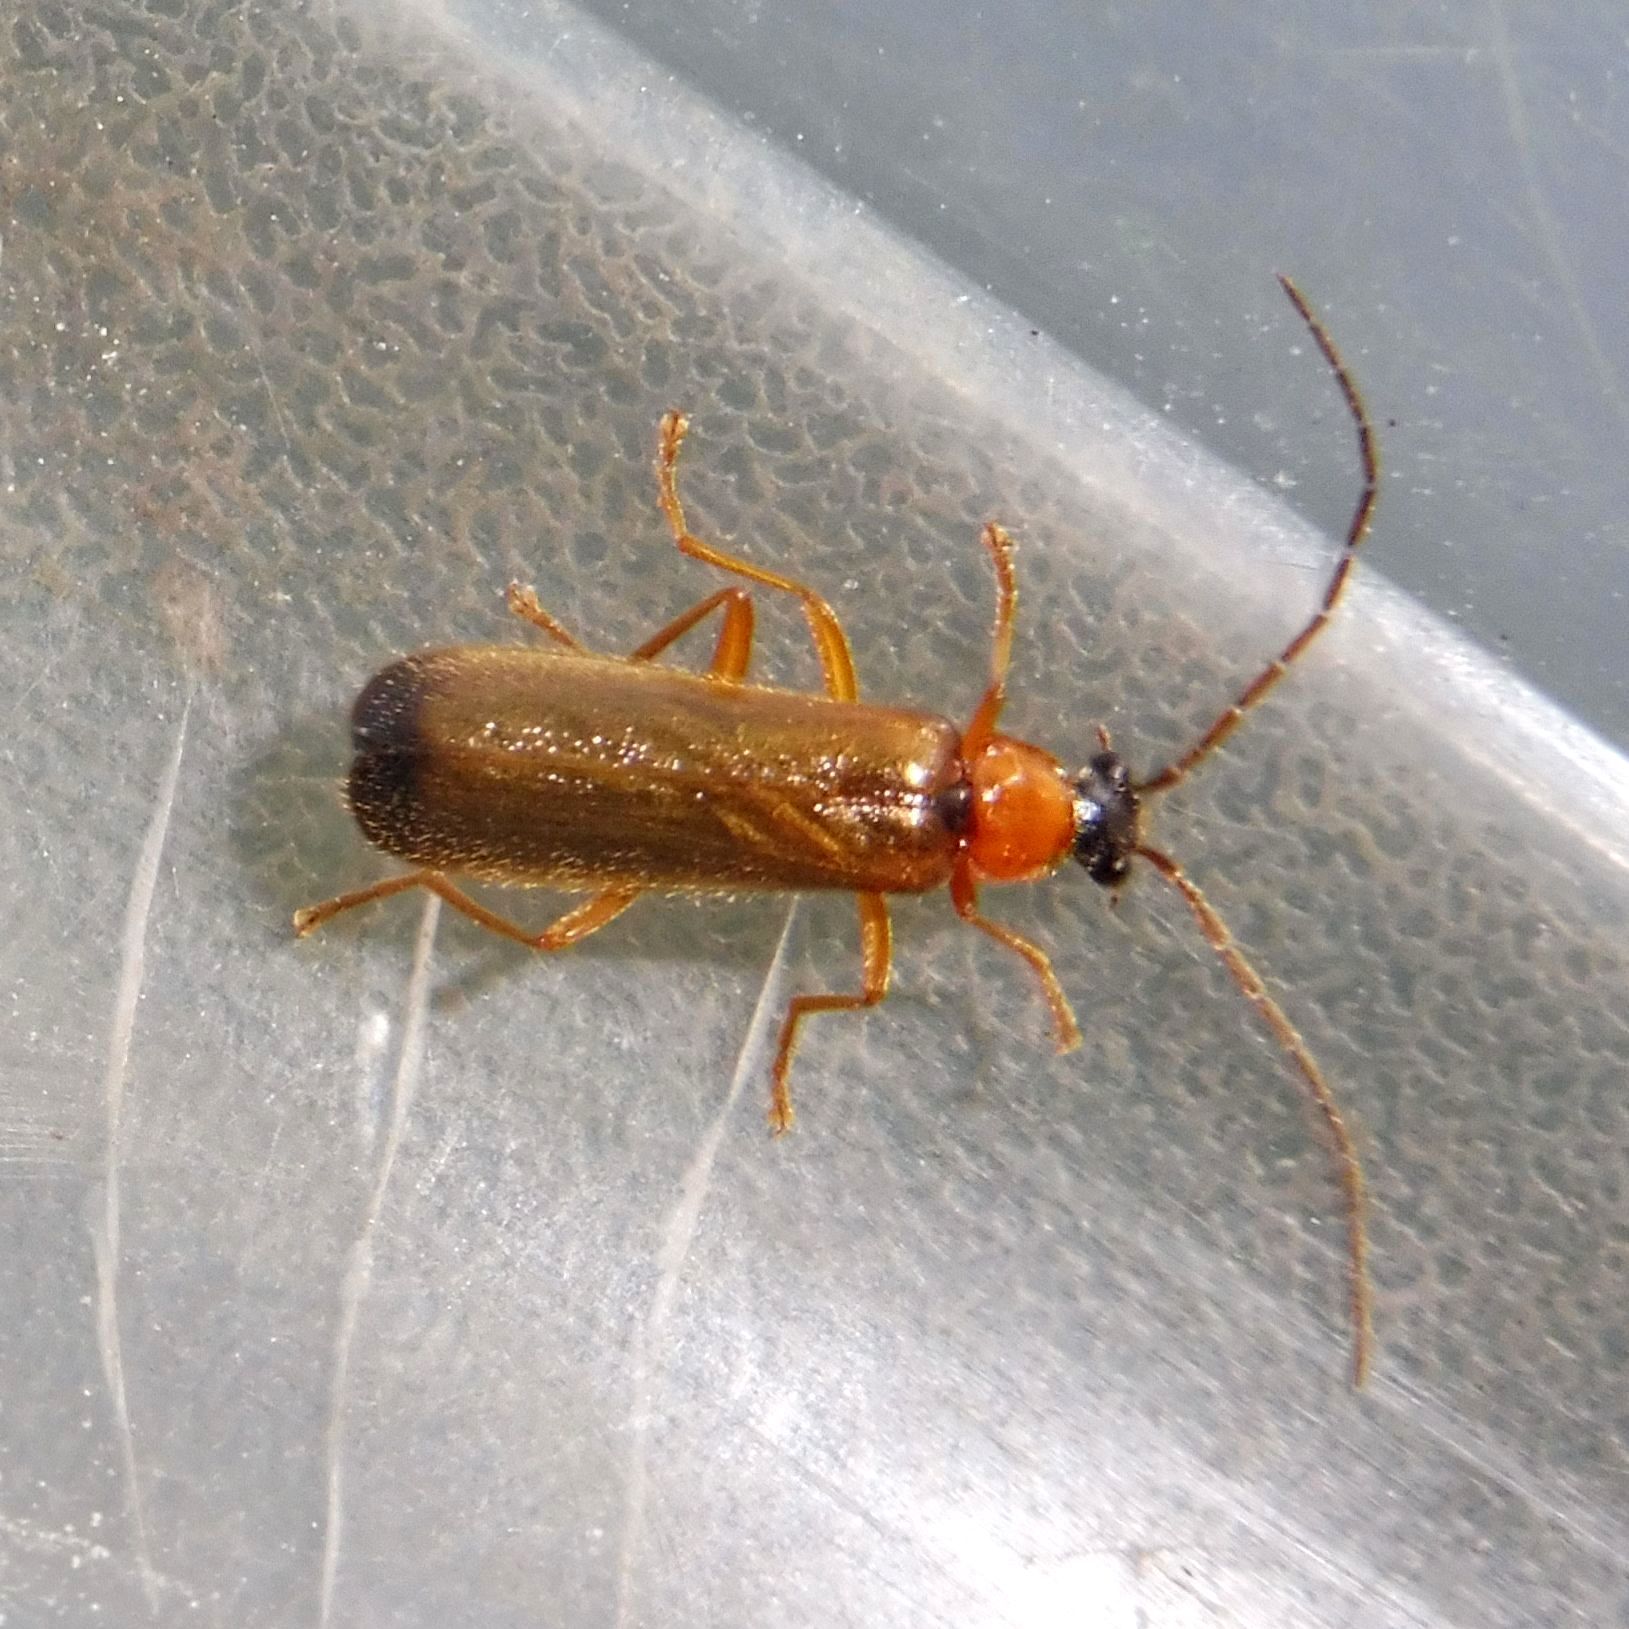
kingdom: Animalia
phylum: Arthropoda
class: Insecta
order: Coleoptera
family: Cantharidae
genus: Rhagonycha
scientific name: Rhagonycha lutea
